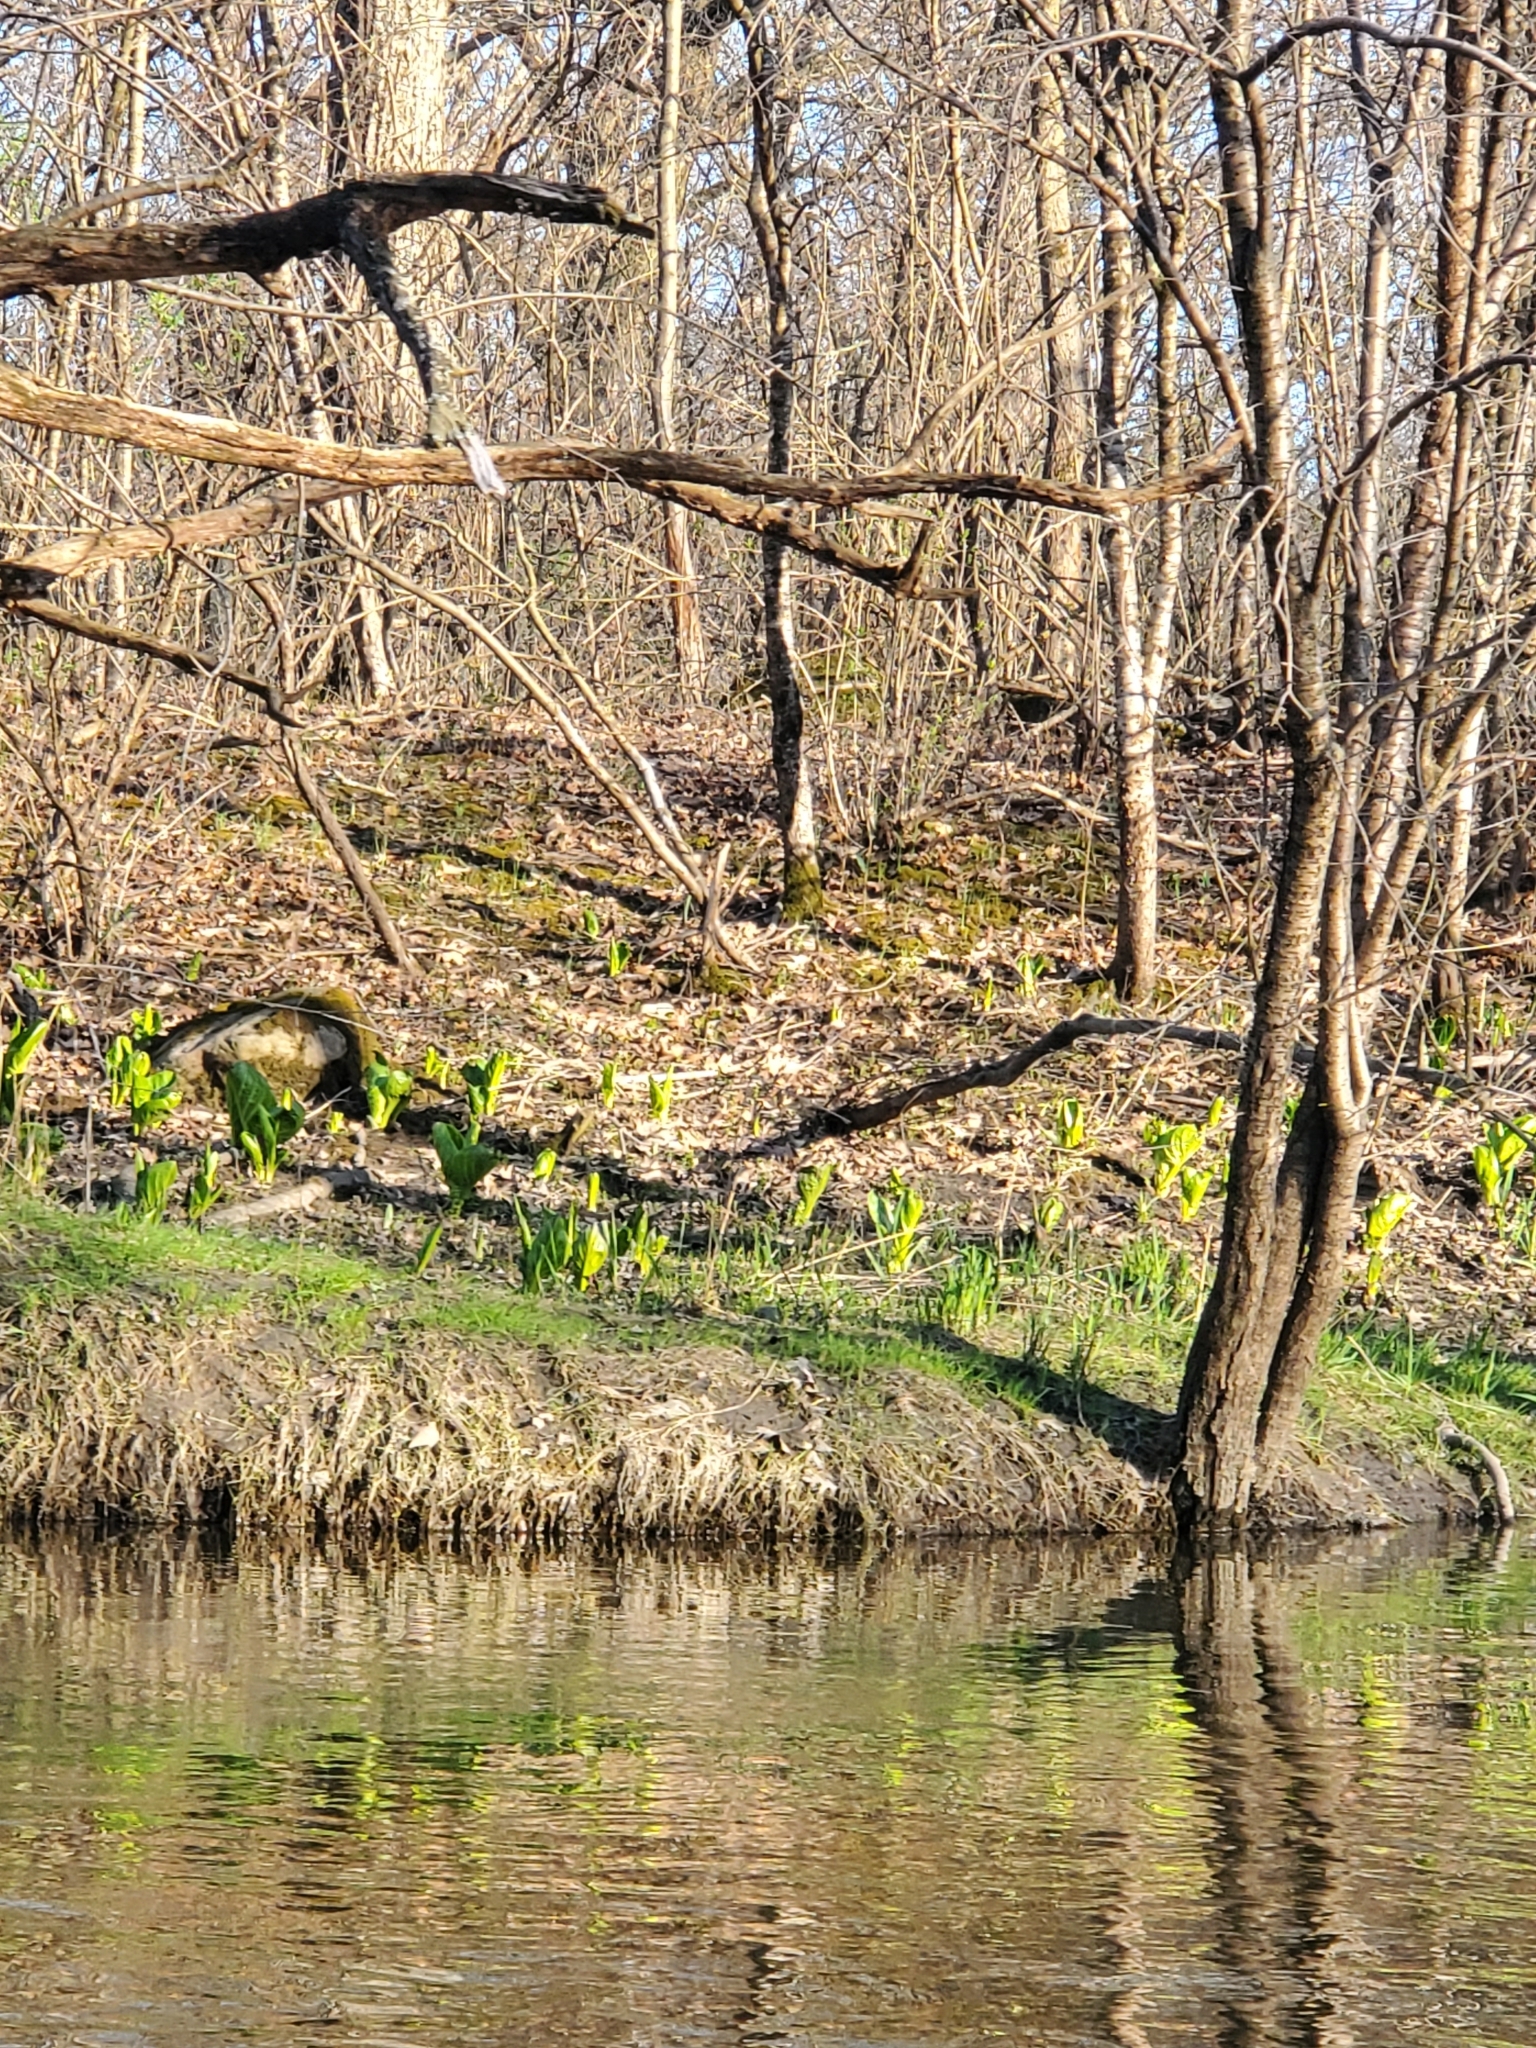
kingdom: Plantae
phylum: Tracheophyta
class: Liliopsida
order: Alismatales
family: Araceae
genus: Symplocarpus
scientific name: Symplocarpus foetidus
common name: Eastern skunk cabbage
